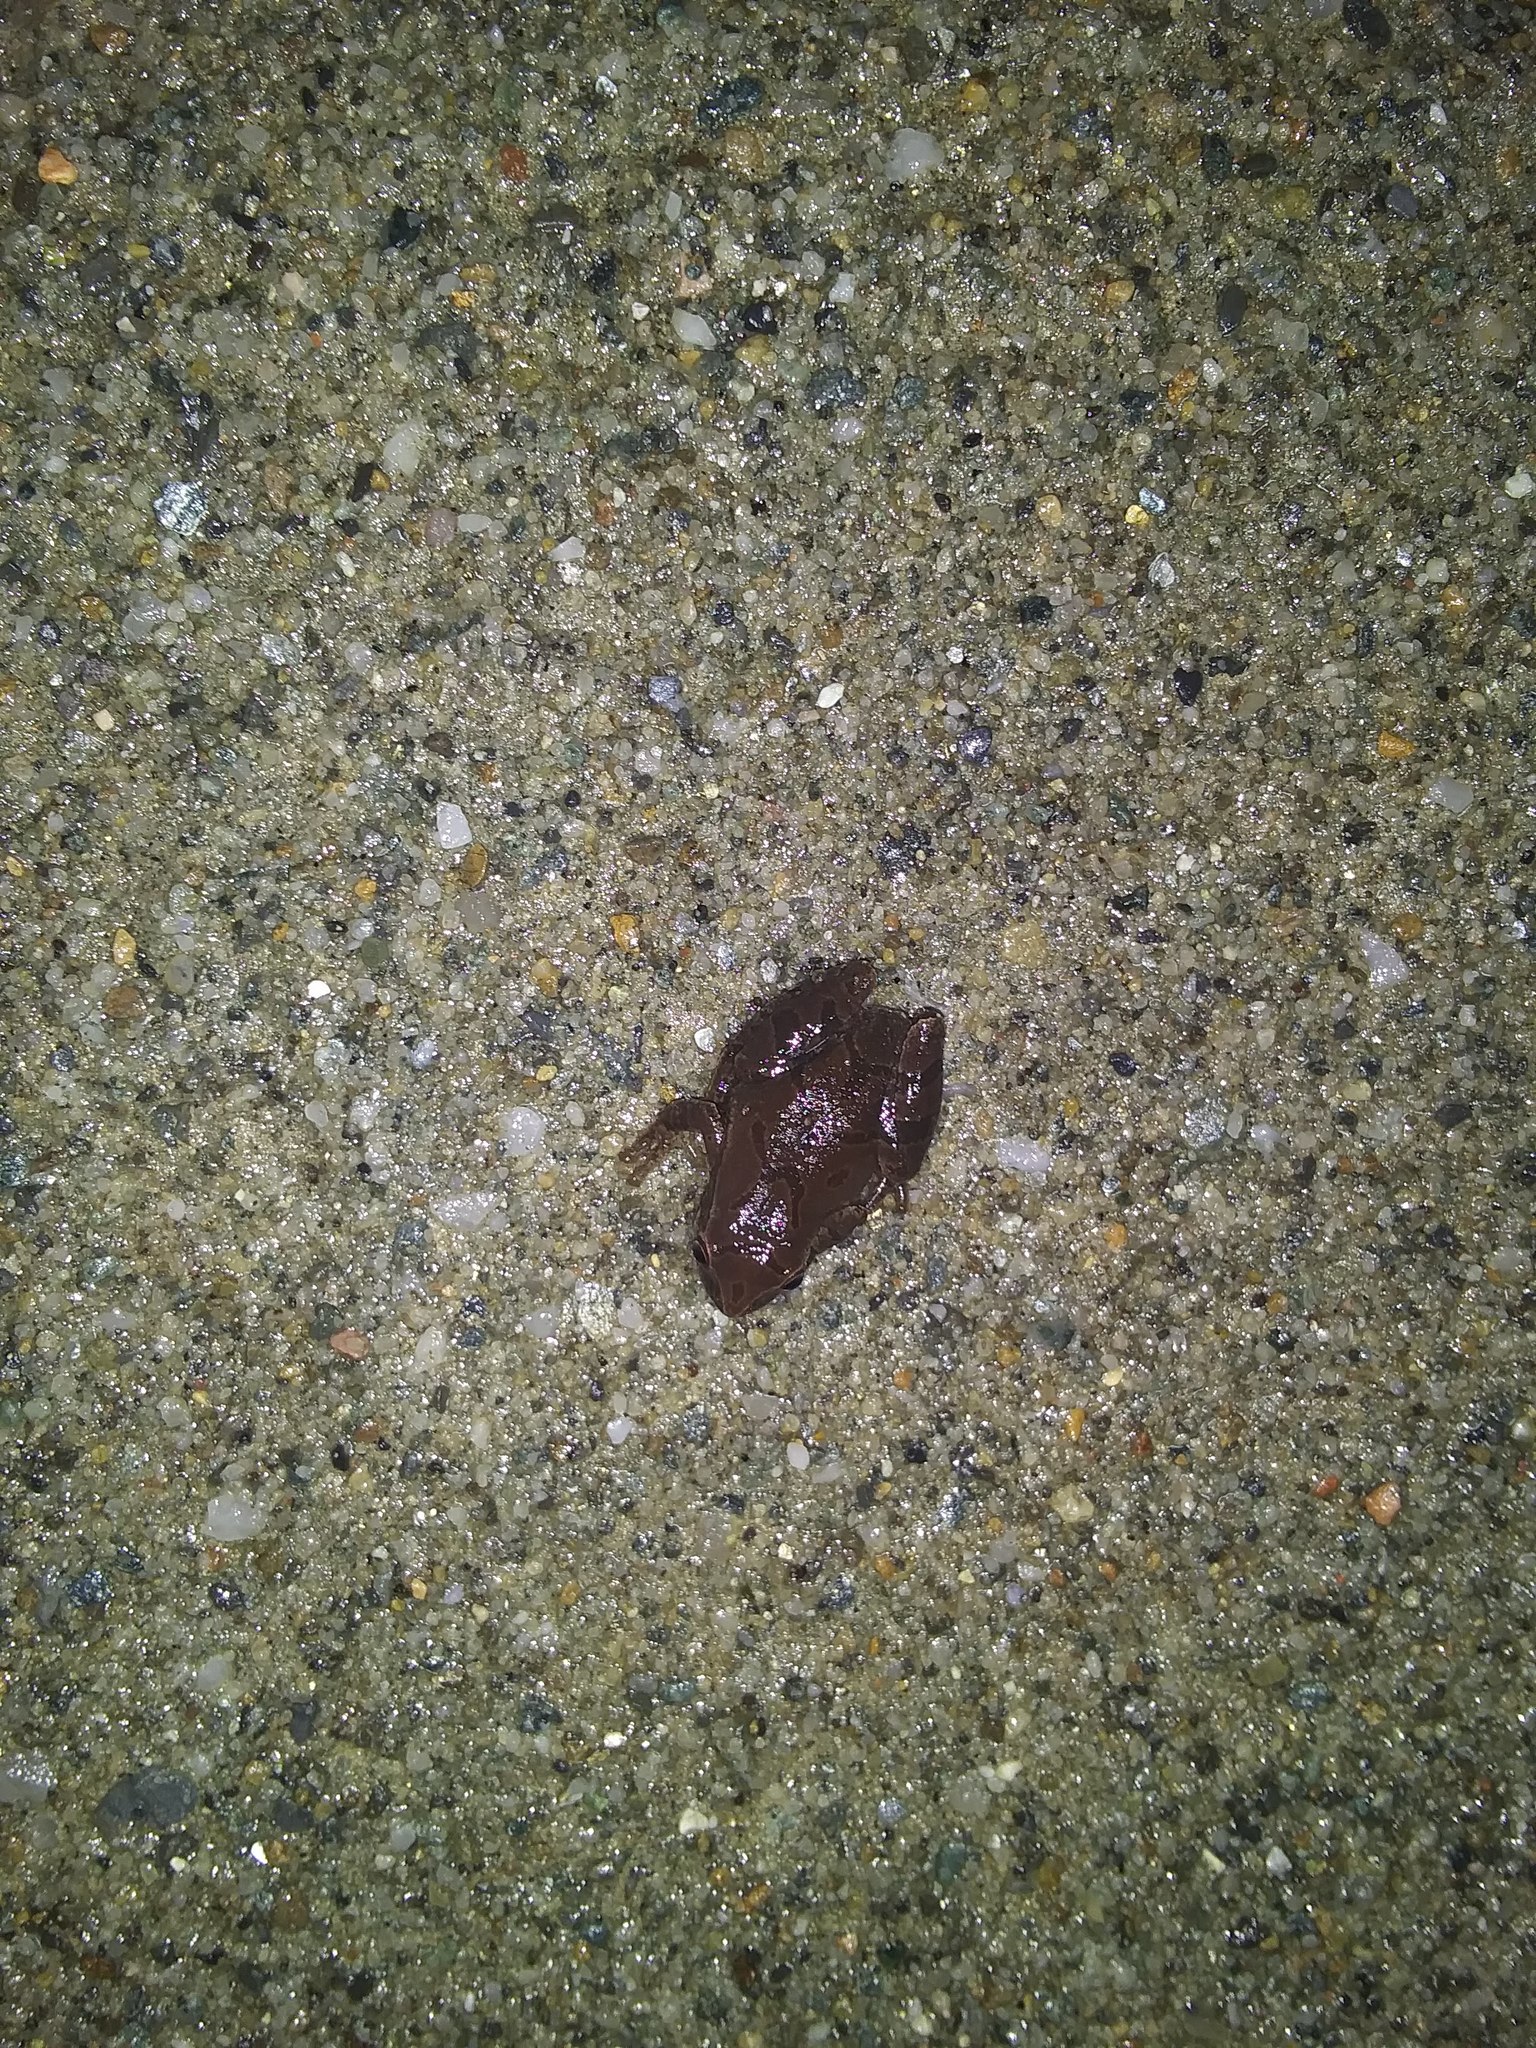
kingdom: Animalia
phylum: Chordata
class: Amphibia
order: Anura
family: Hylidae
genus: Pseudacris
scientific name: Pseudacris crucifer
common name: Spring peeper
